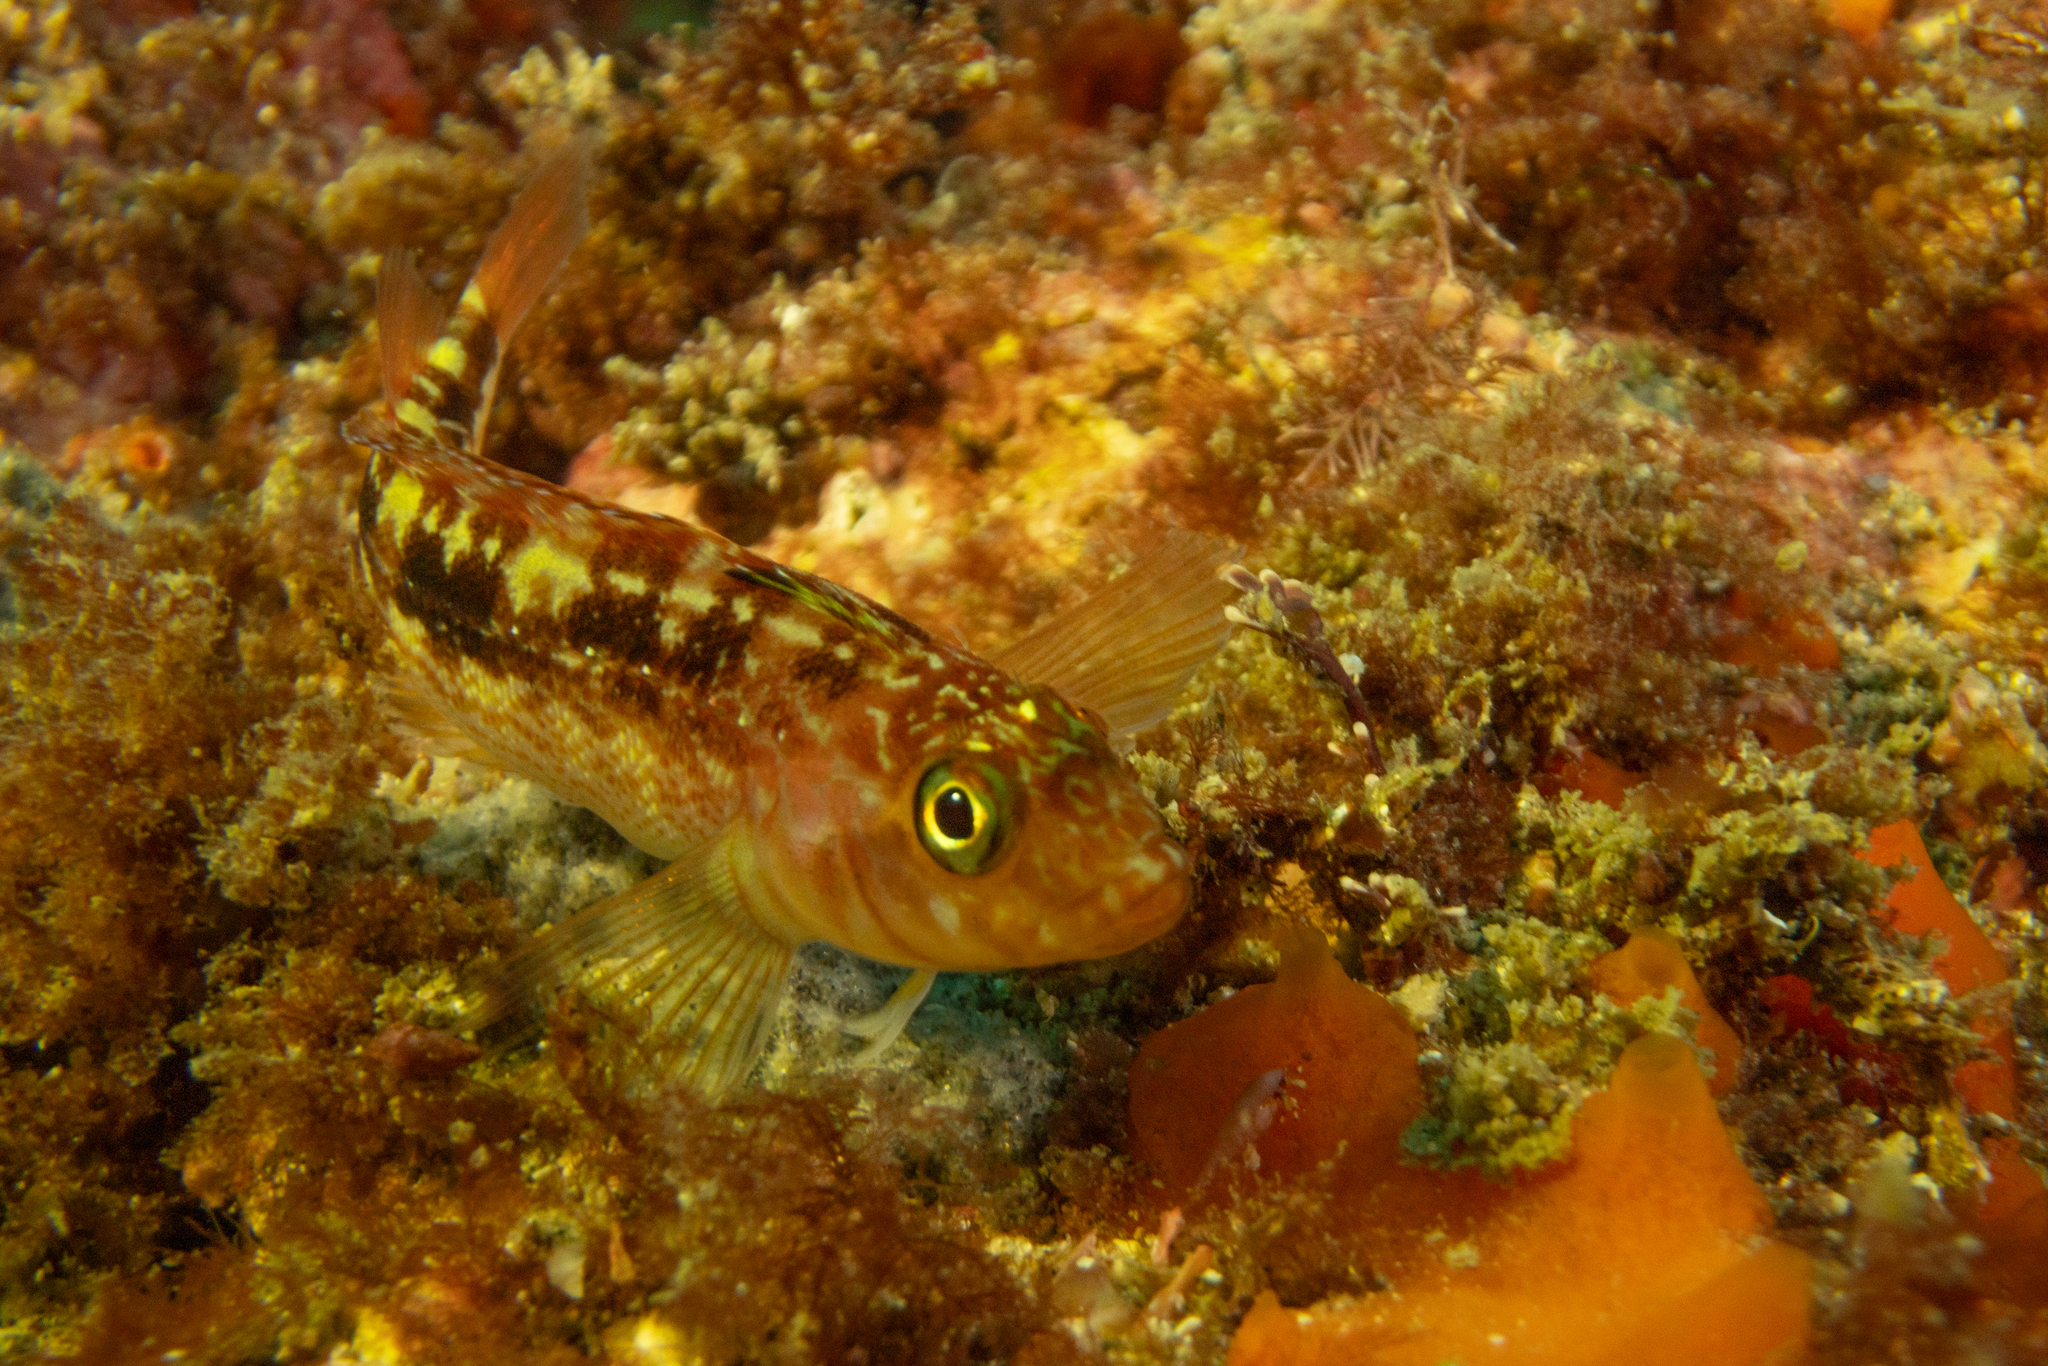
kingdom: Animalia
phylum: Chordata
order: Perciformes
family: Tripterygiidae
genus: Forsterygion
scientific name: Forsterygion varium
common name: Variable triplefin
